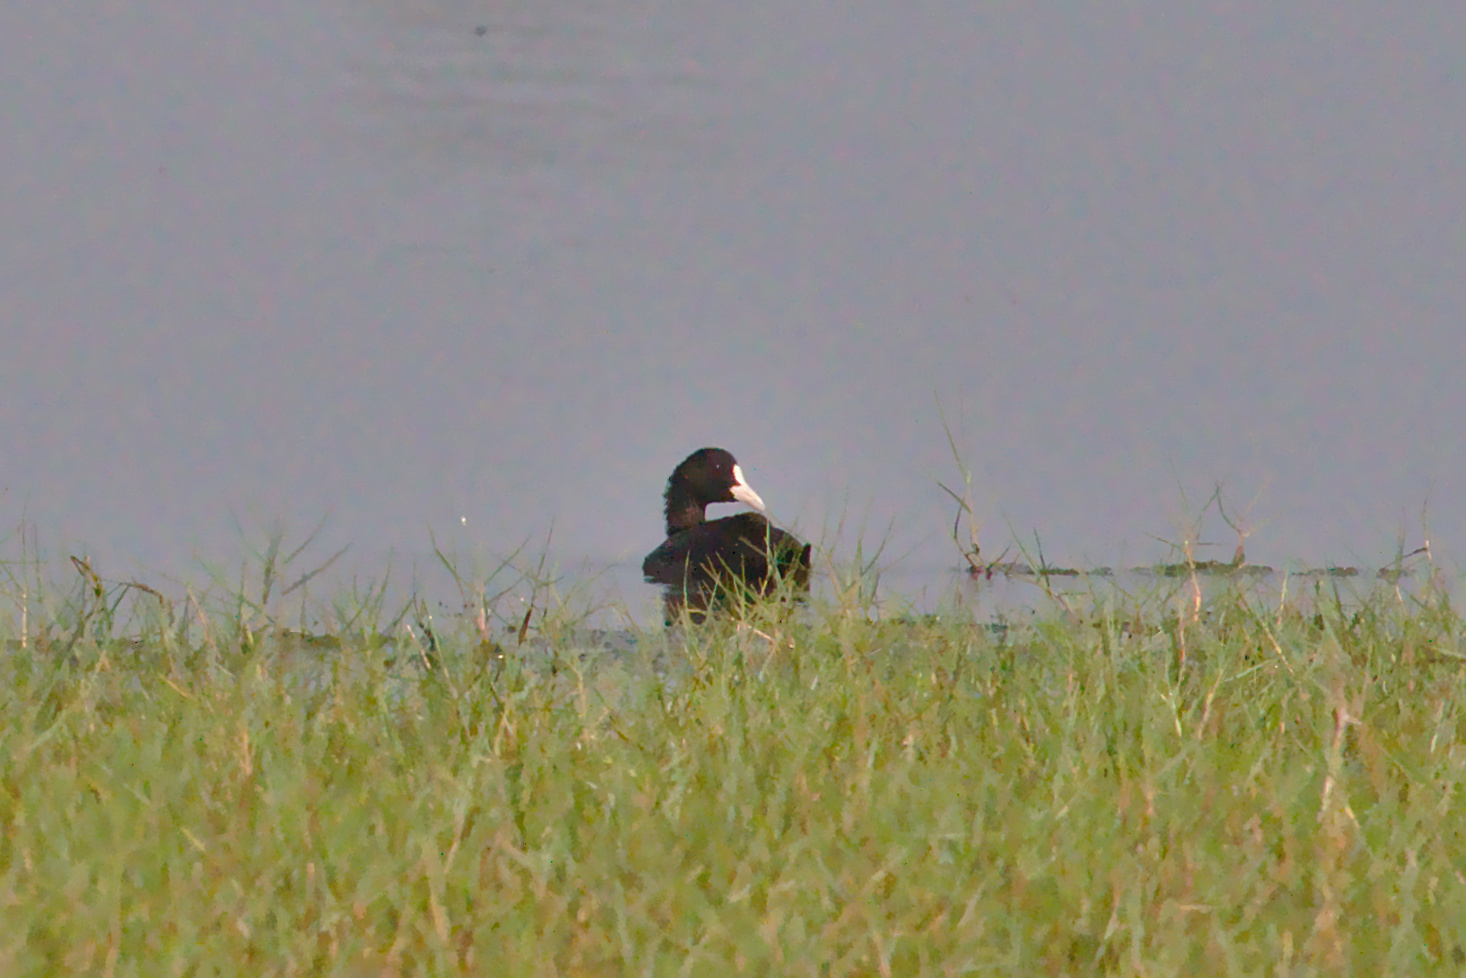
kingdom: Animalia
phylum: Chordata
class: Aves
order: Gruiformes
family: Rallidae
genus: Fulica
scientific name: Fulica atra
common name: Eurasian coot
